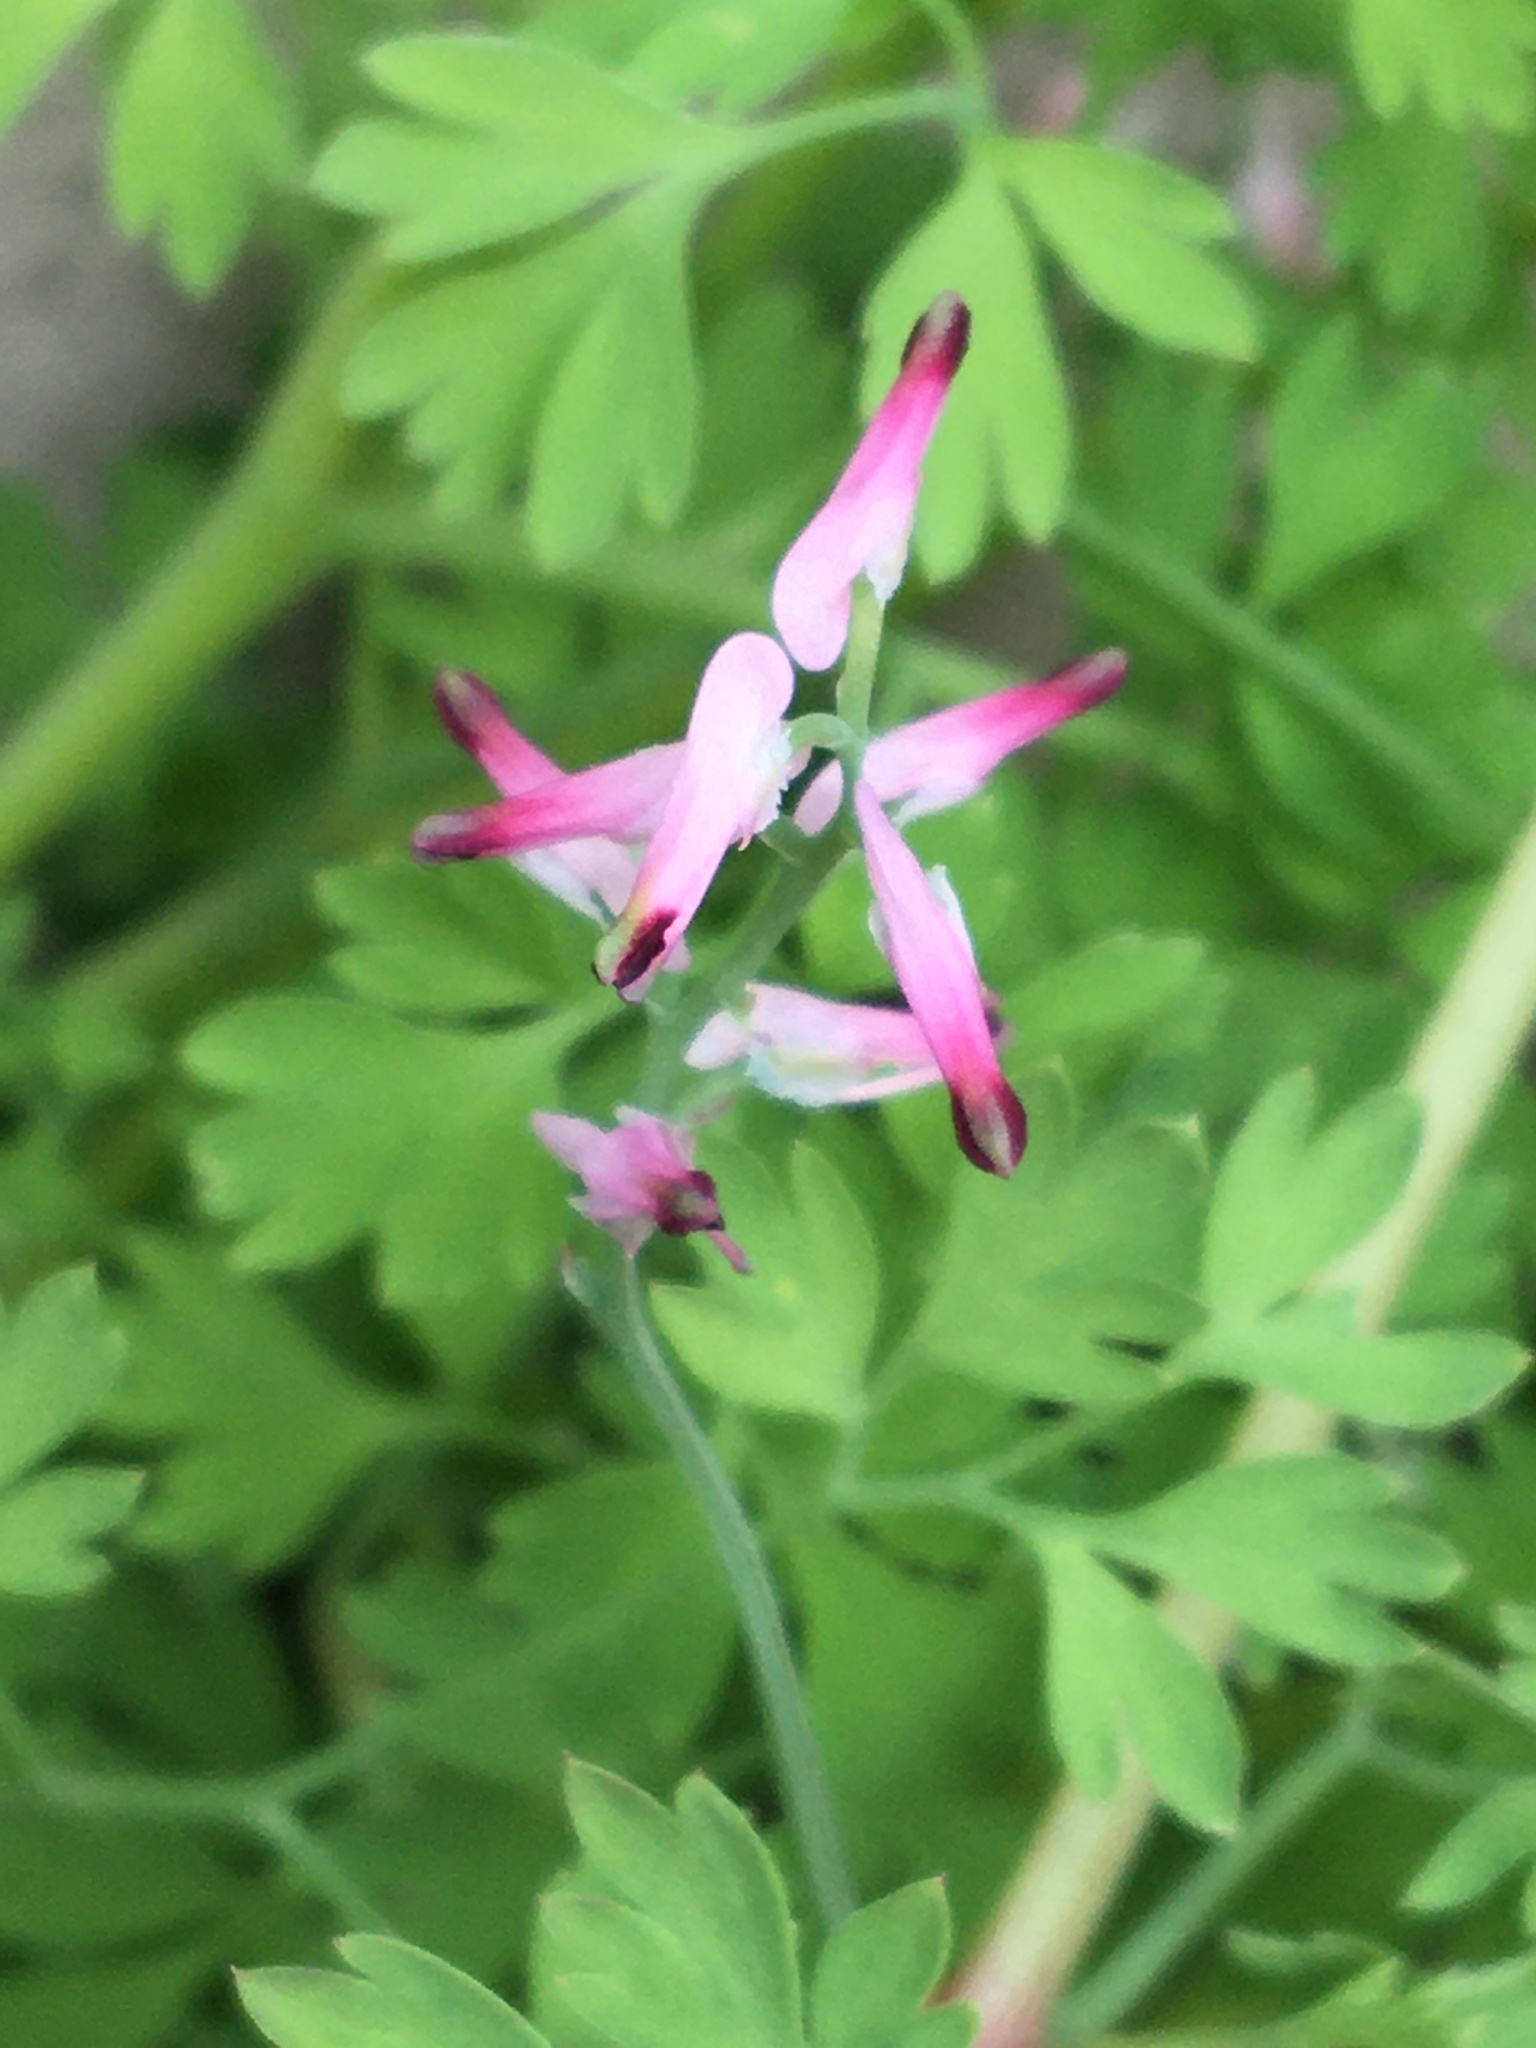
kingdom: Plantae
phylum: Tracheophyta
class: Magnoliopsida
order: Ranunculales
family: Papaveraceae
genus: Fumaria
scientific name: Fumaria muralis
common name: Common ramping-fumitory
